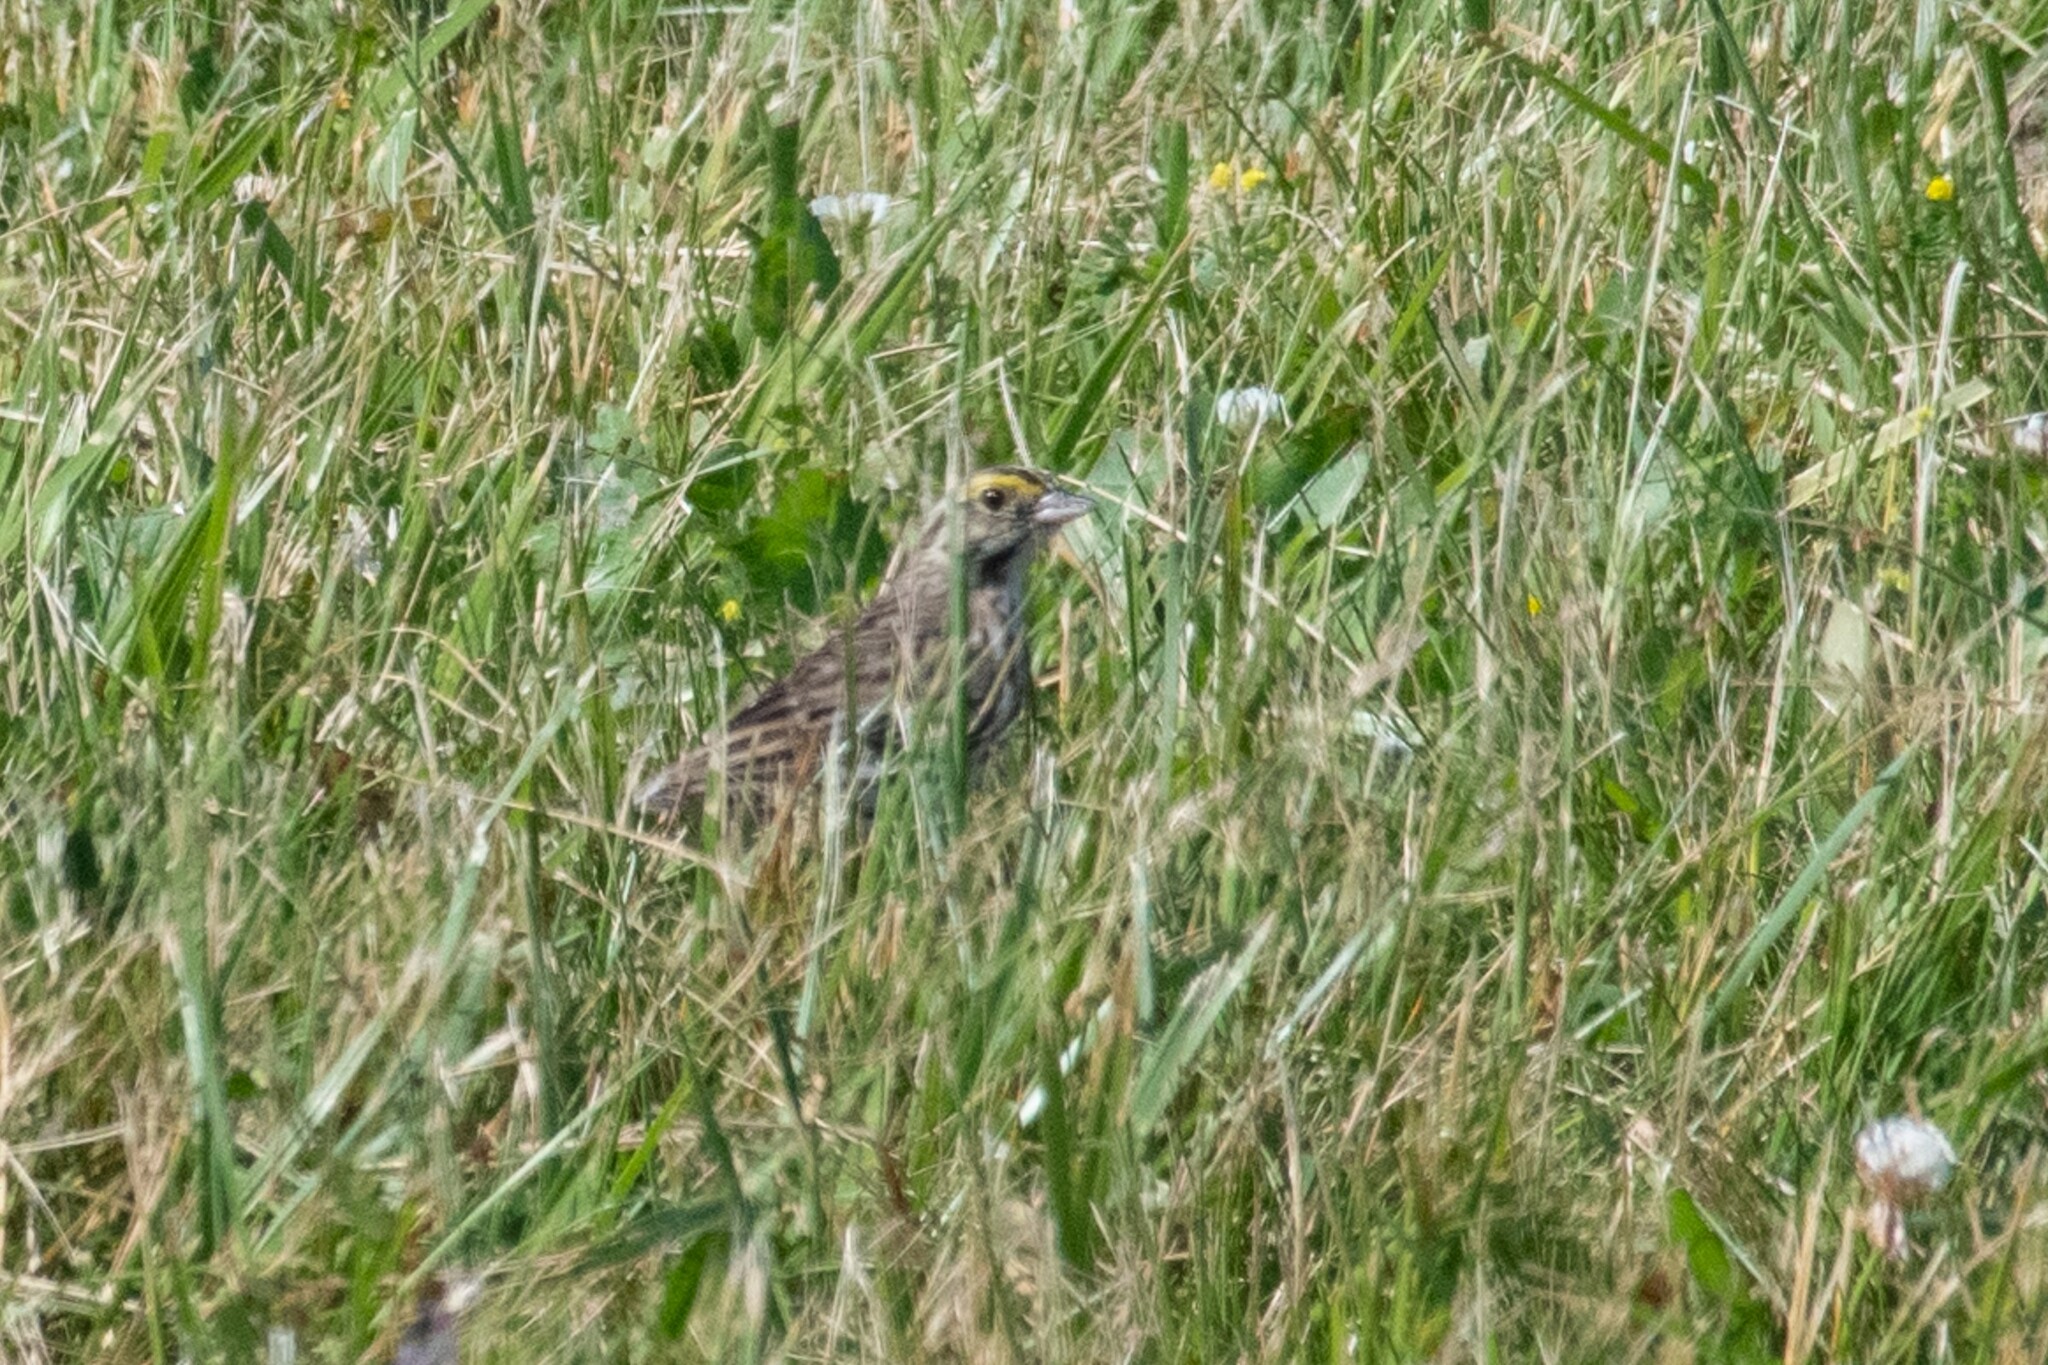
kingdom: Animalia
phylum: Chordata
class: Aves
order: Passeriformes
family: Passerellidae
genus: Passerculus
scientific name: Passerculus sandwichensis
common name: Savannah sparrow
